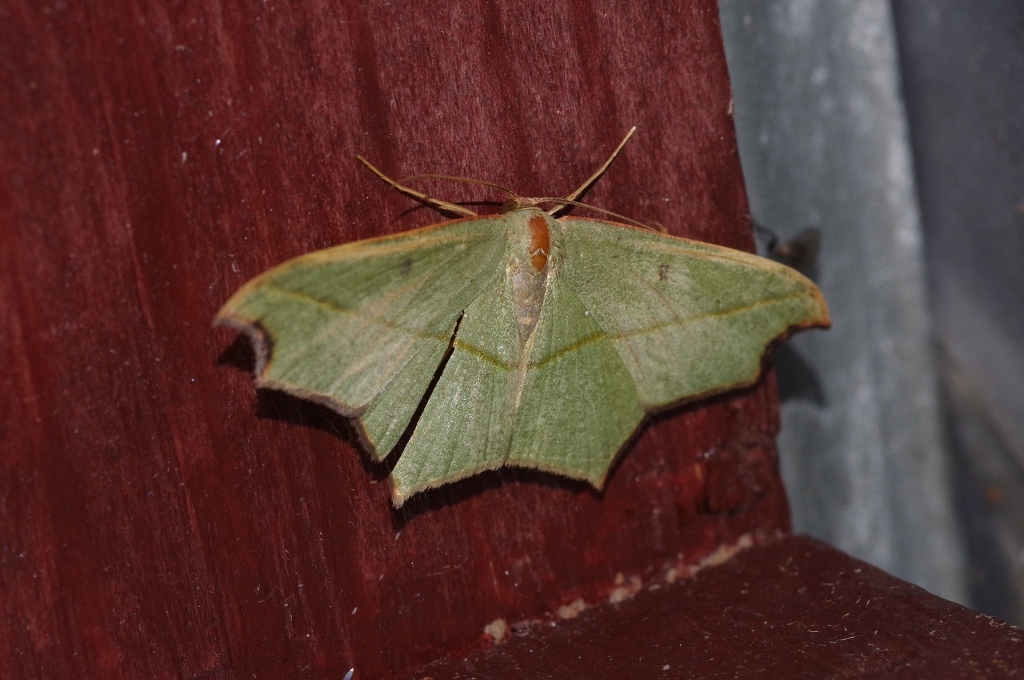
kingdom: Animalia
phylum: Arthropoda
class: Insecta
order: Lepidoptera
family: Geometridae
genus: Traminda
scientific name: Traminda aventiaria
